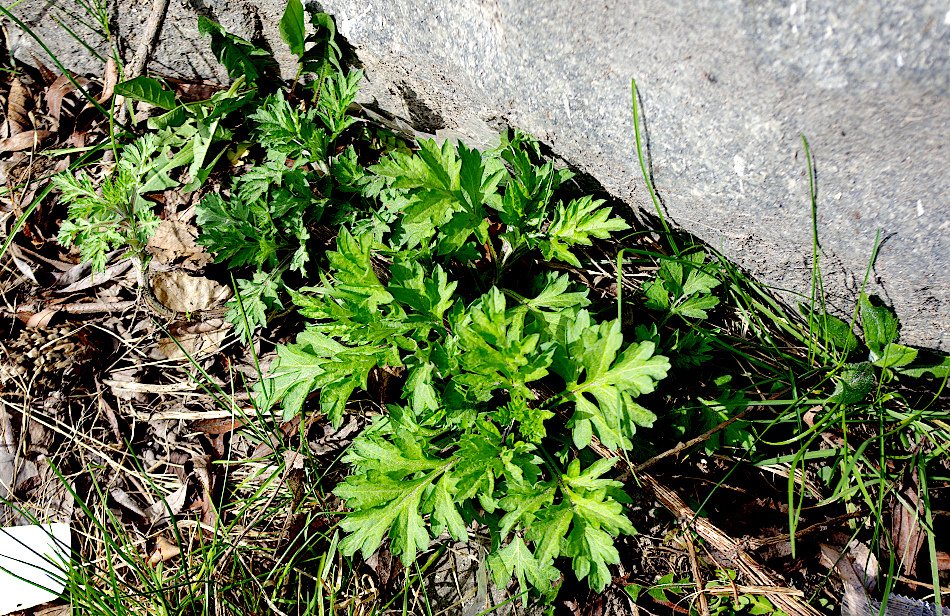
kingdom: Plantae
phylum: Tracheophyta
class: Magnoliopsida
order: Asterales
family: Asteraceae
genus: Artemisia
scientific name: Artemisia vulgaris
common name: Mugwort
